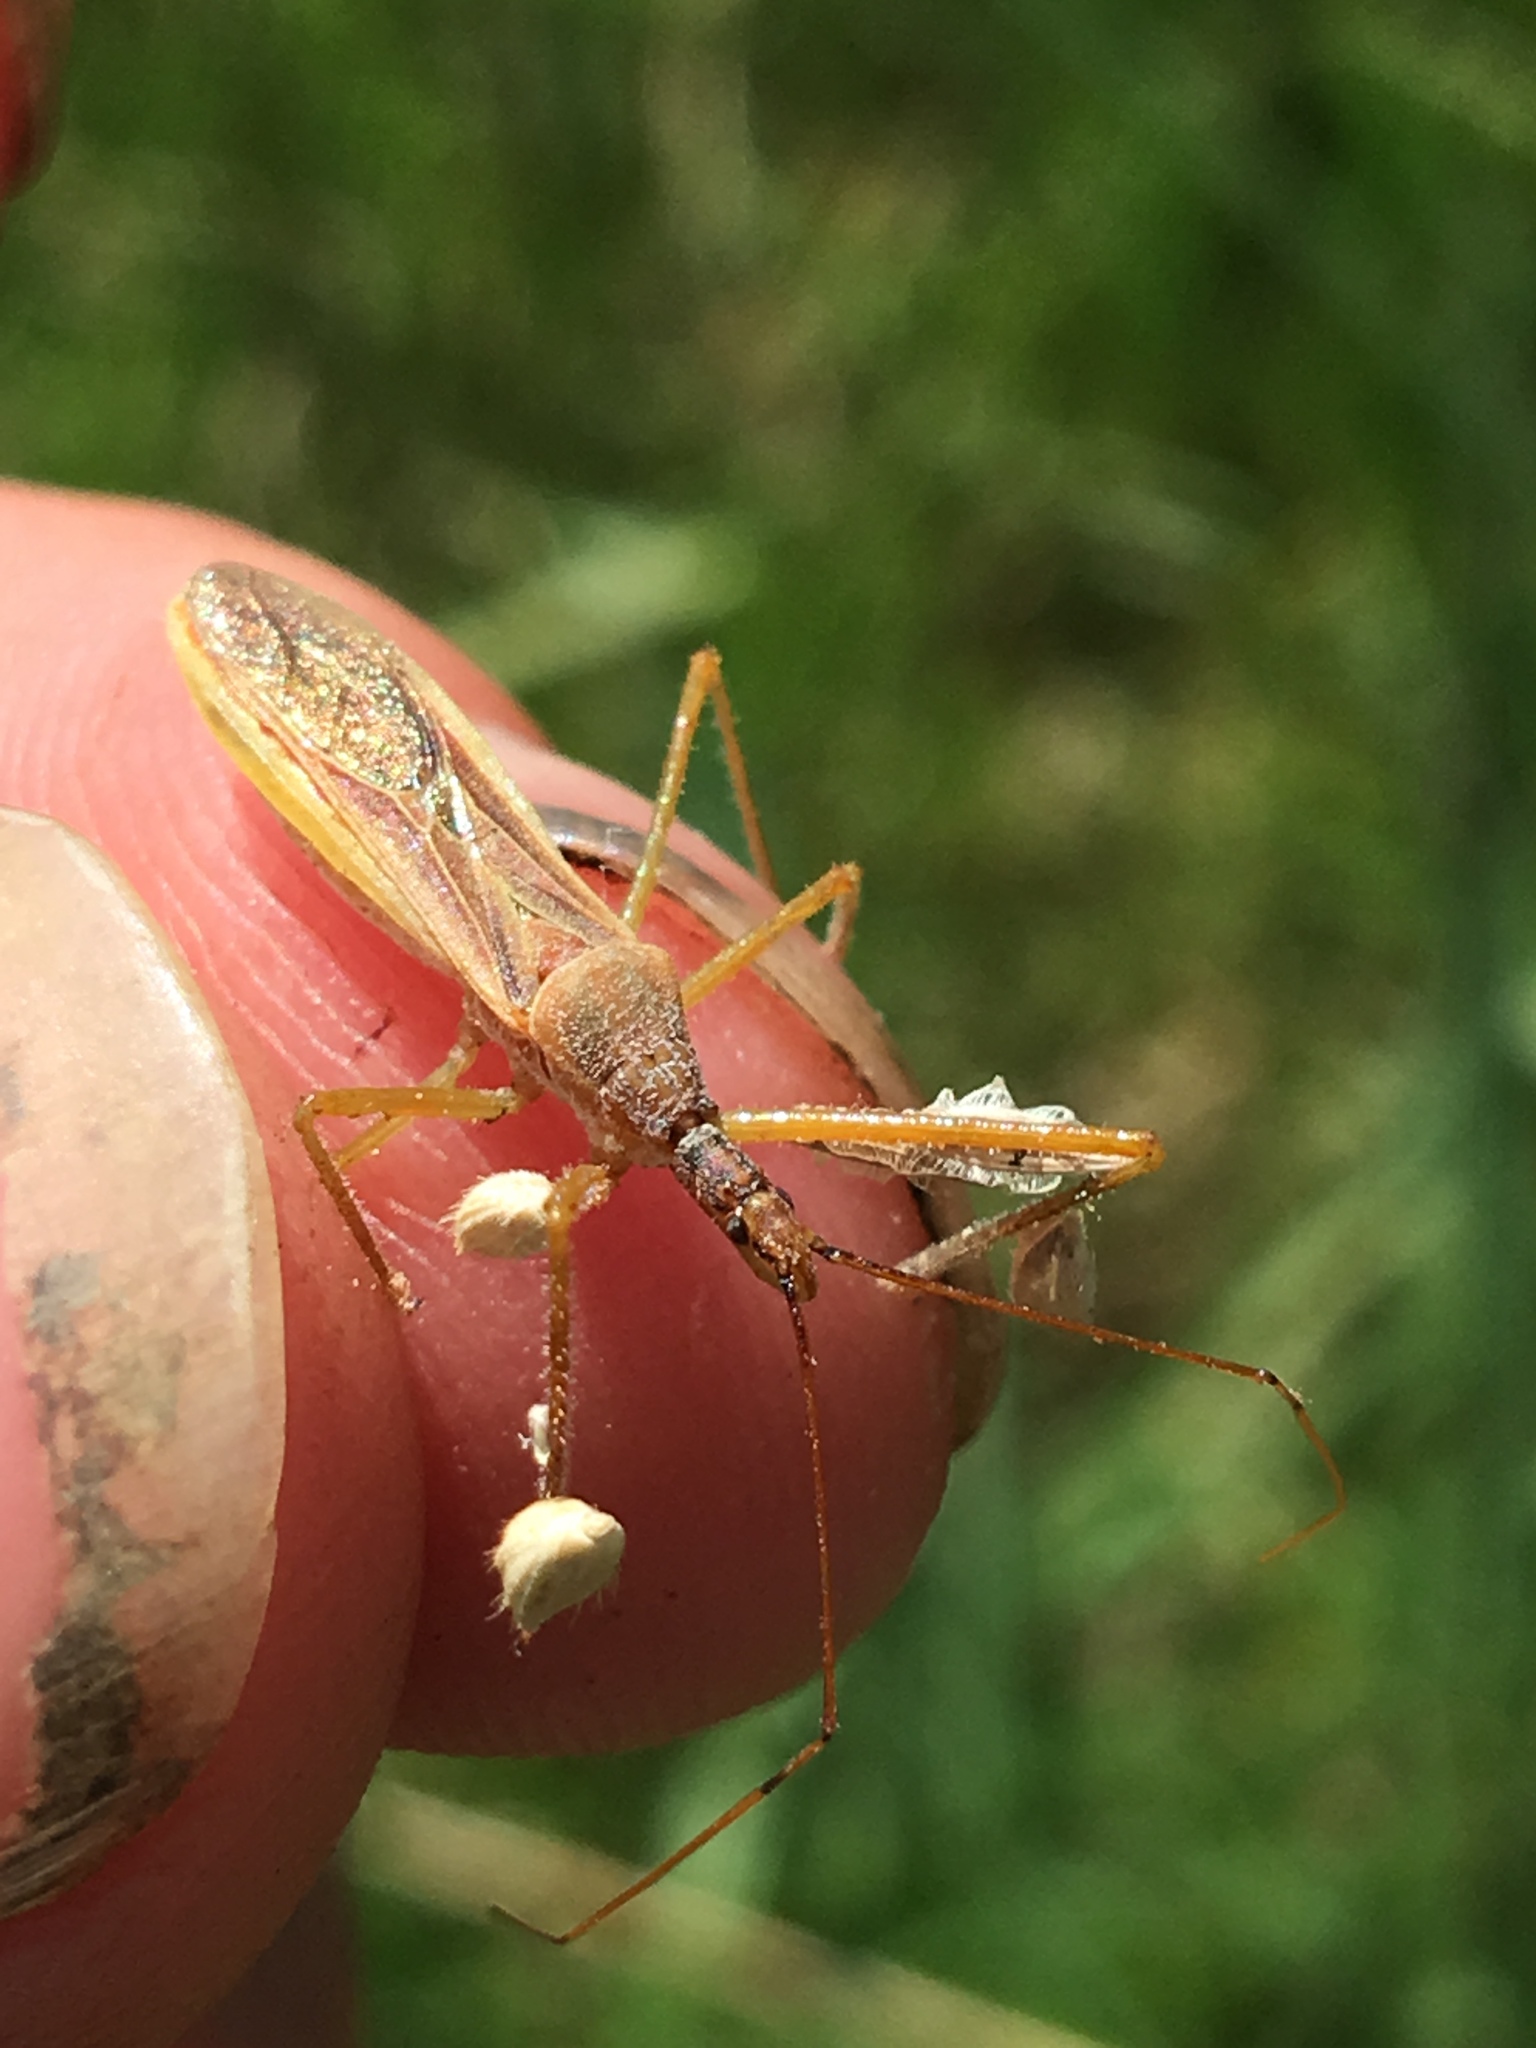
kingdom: Animalia
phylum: Arthropoda
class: Insecta
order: Hemiptera
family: Reduviidae
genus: Zelus
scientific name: Zelus cervicalis
